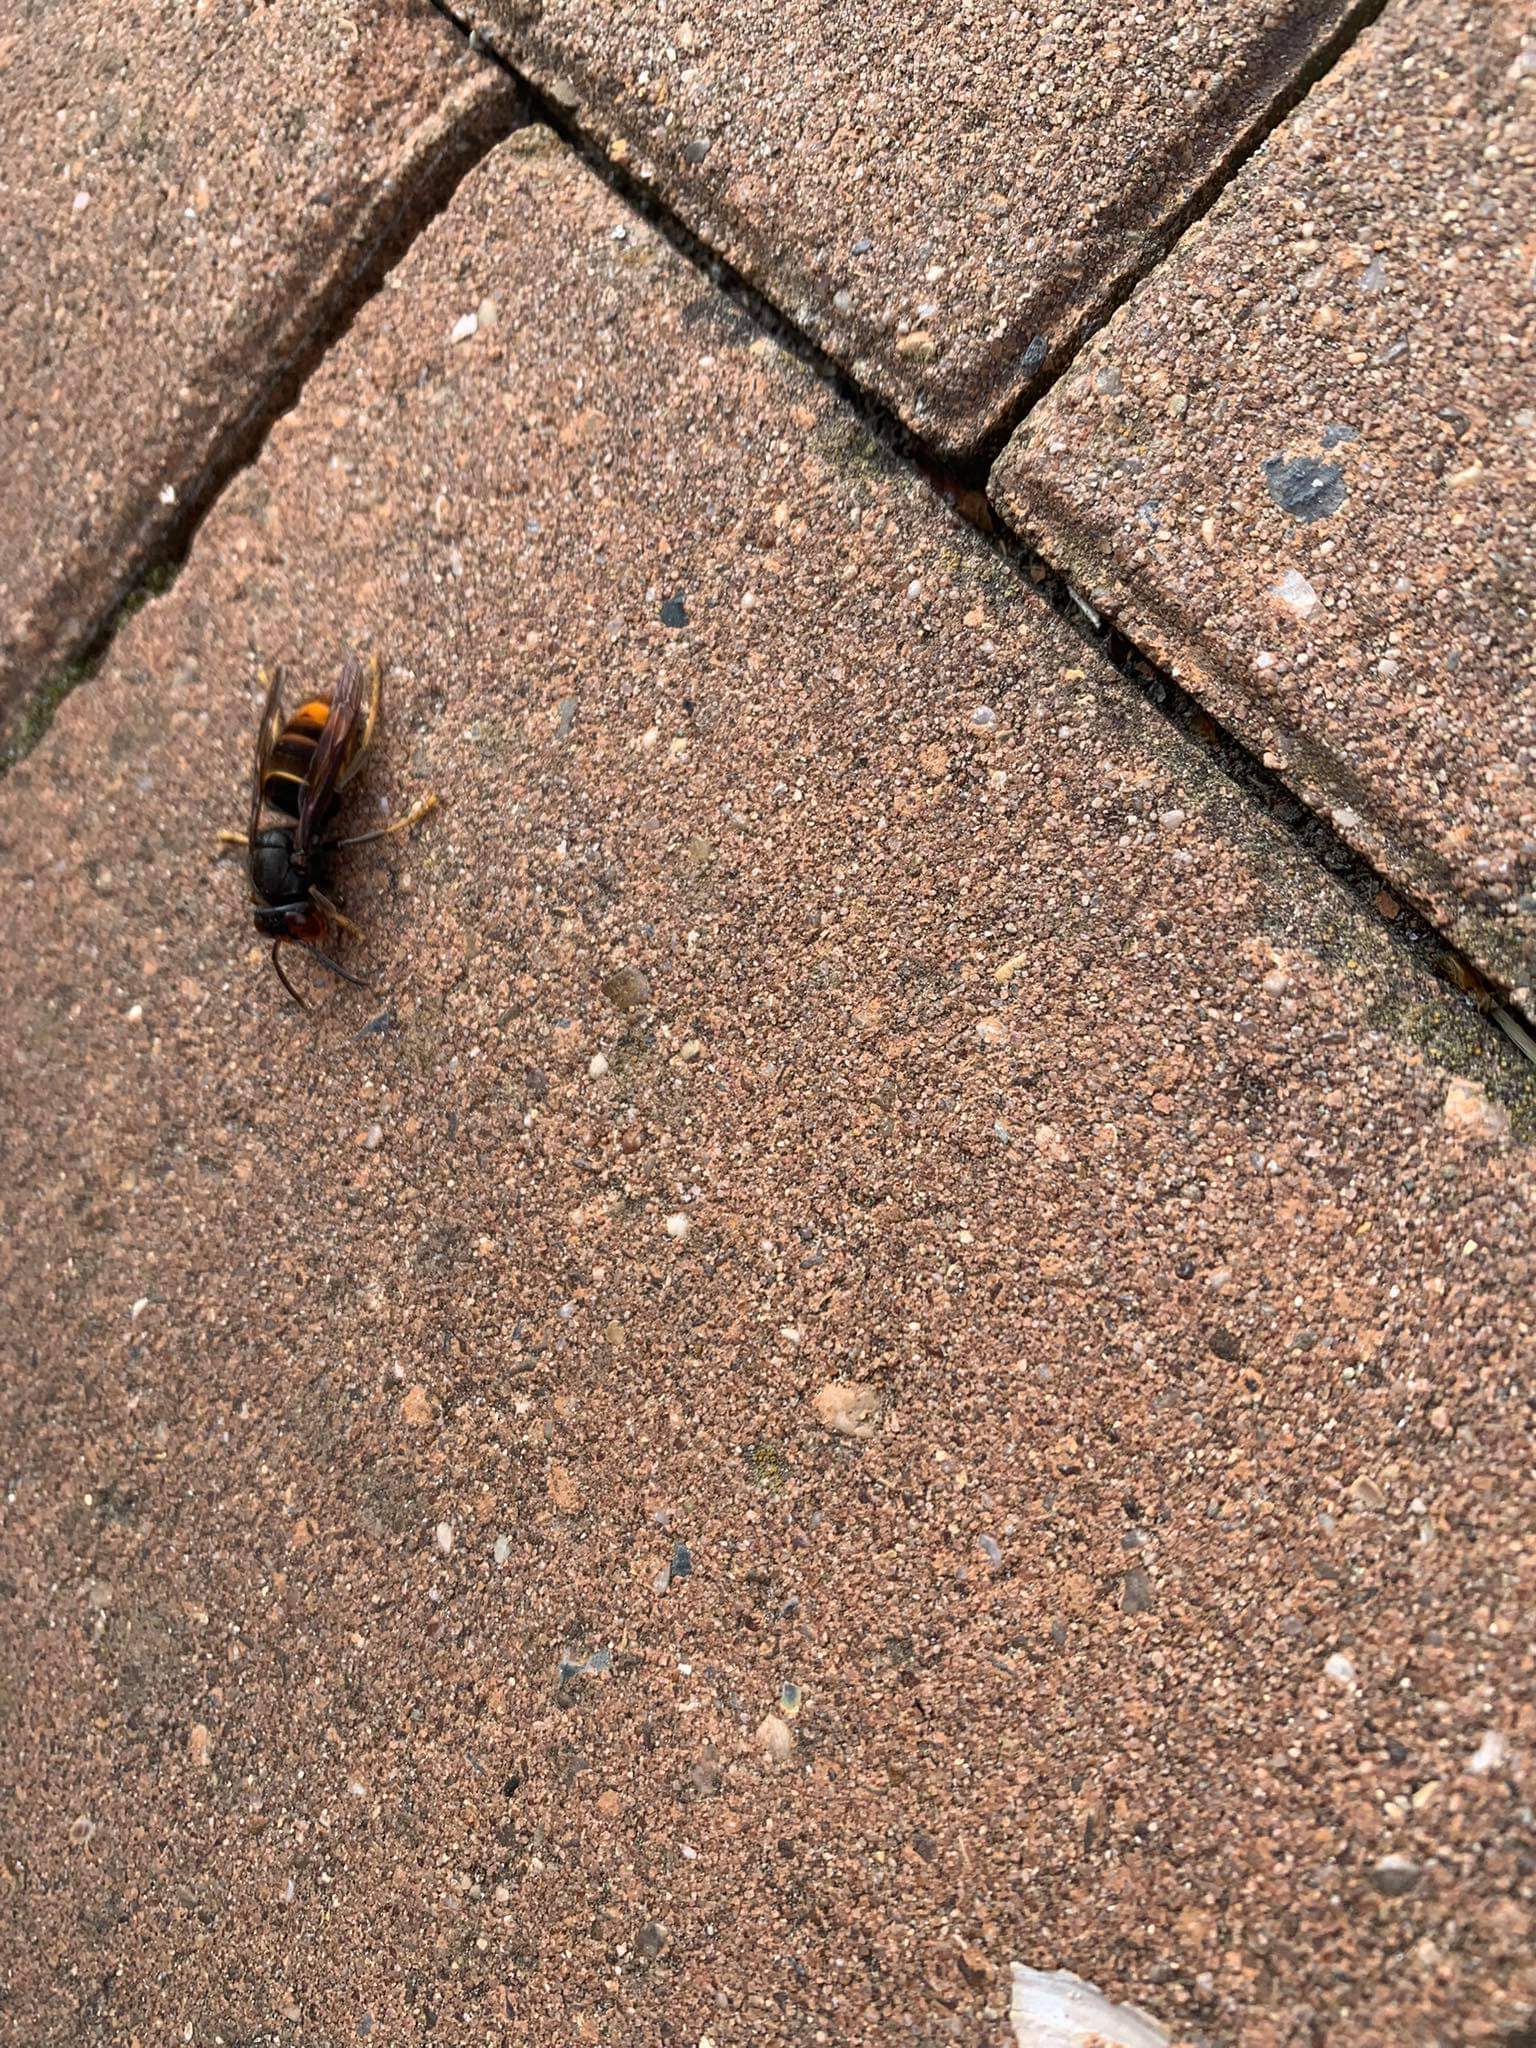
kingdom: Animalia
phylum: Arthropoda
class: Insecta
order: Hymenoptera
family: Vespidae
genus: Vespa
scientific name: Vespa velutina
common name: Asian hornet
